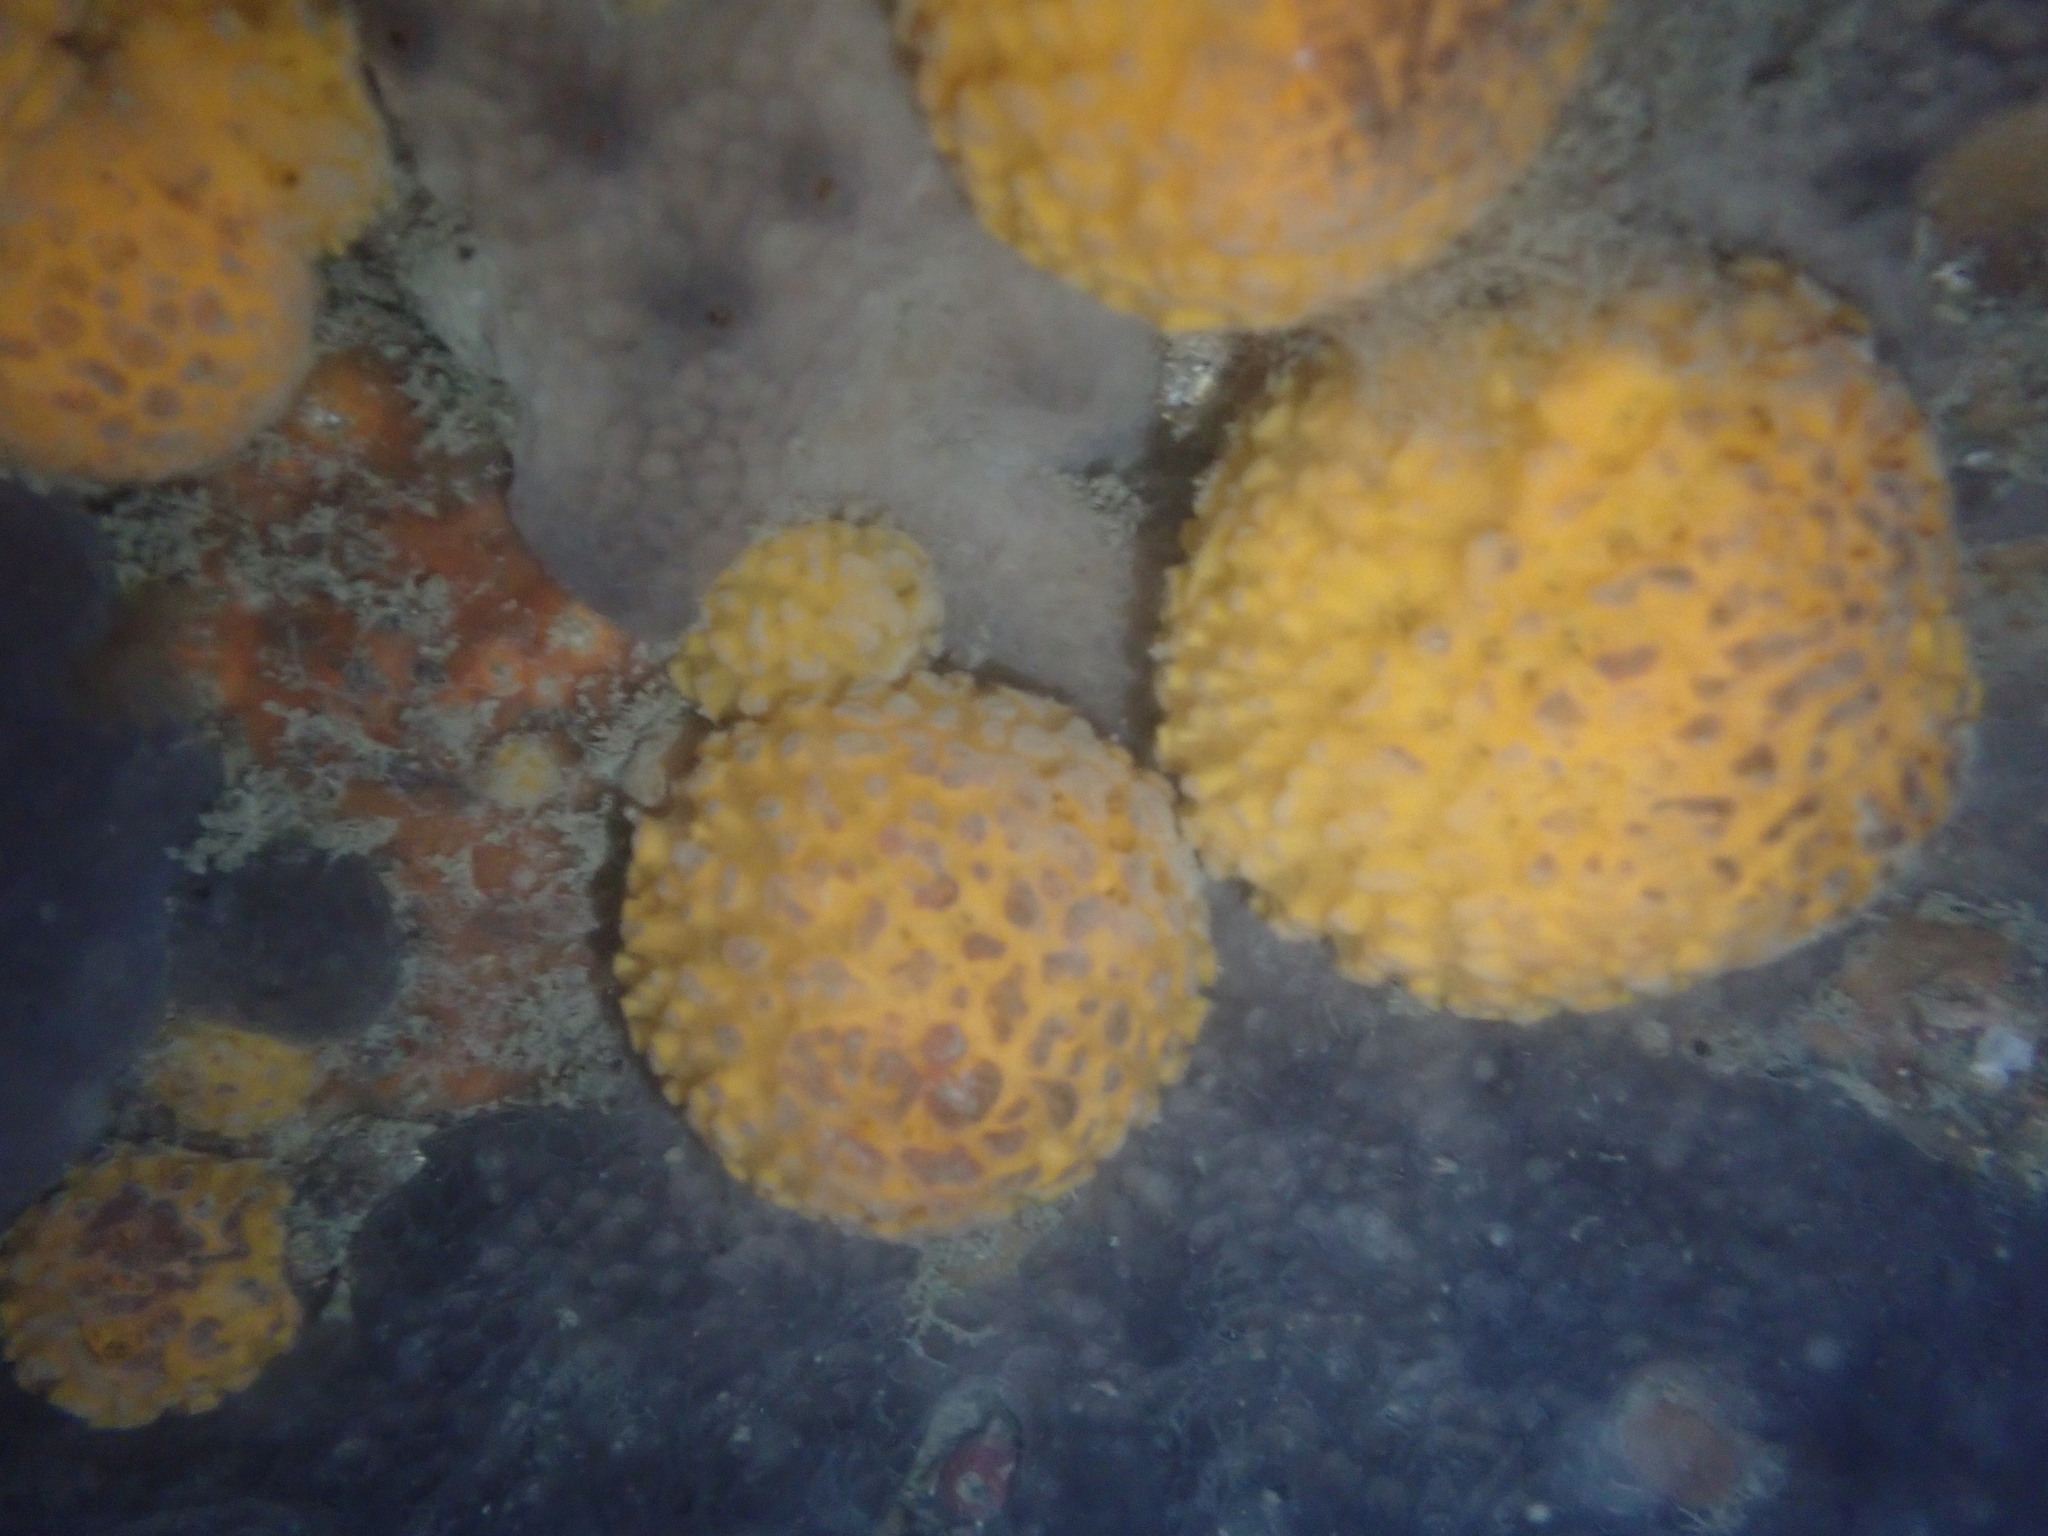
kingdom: Animalia
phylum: Porifera
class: Demospongiae
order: Tethyida
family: Tethyidae
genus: Tethya
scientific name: Tethya burtoni
